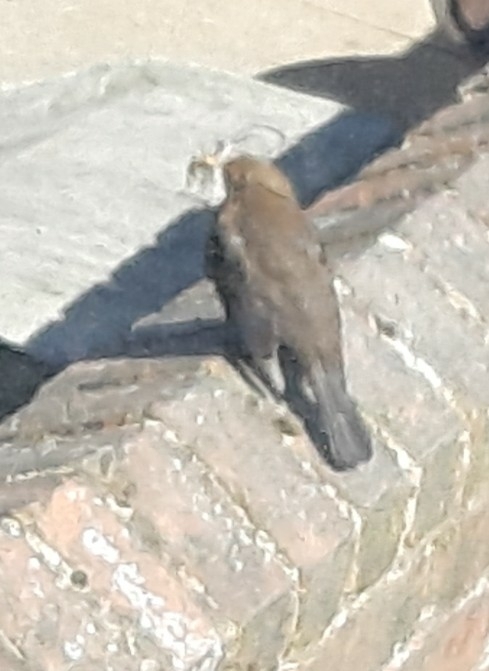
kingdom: Animalia
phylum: Chordata
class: Aves
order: Passeriformes
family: Turdidae
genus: Turdus
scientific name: Turdus merula
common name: Common blackbird
